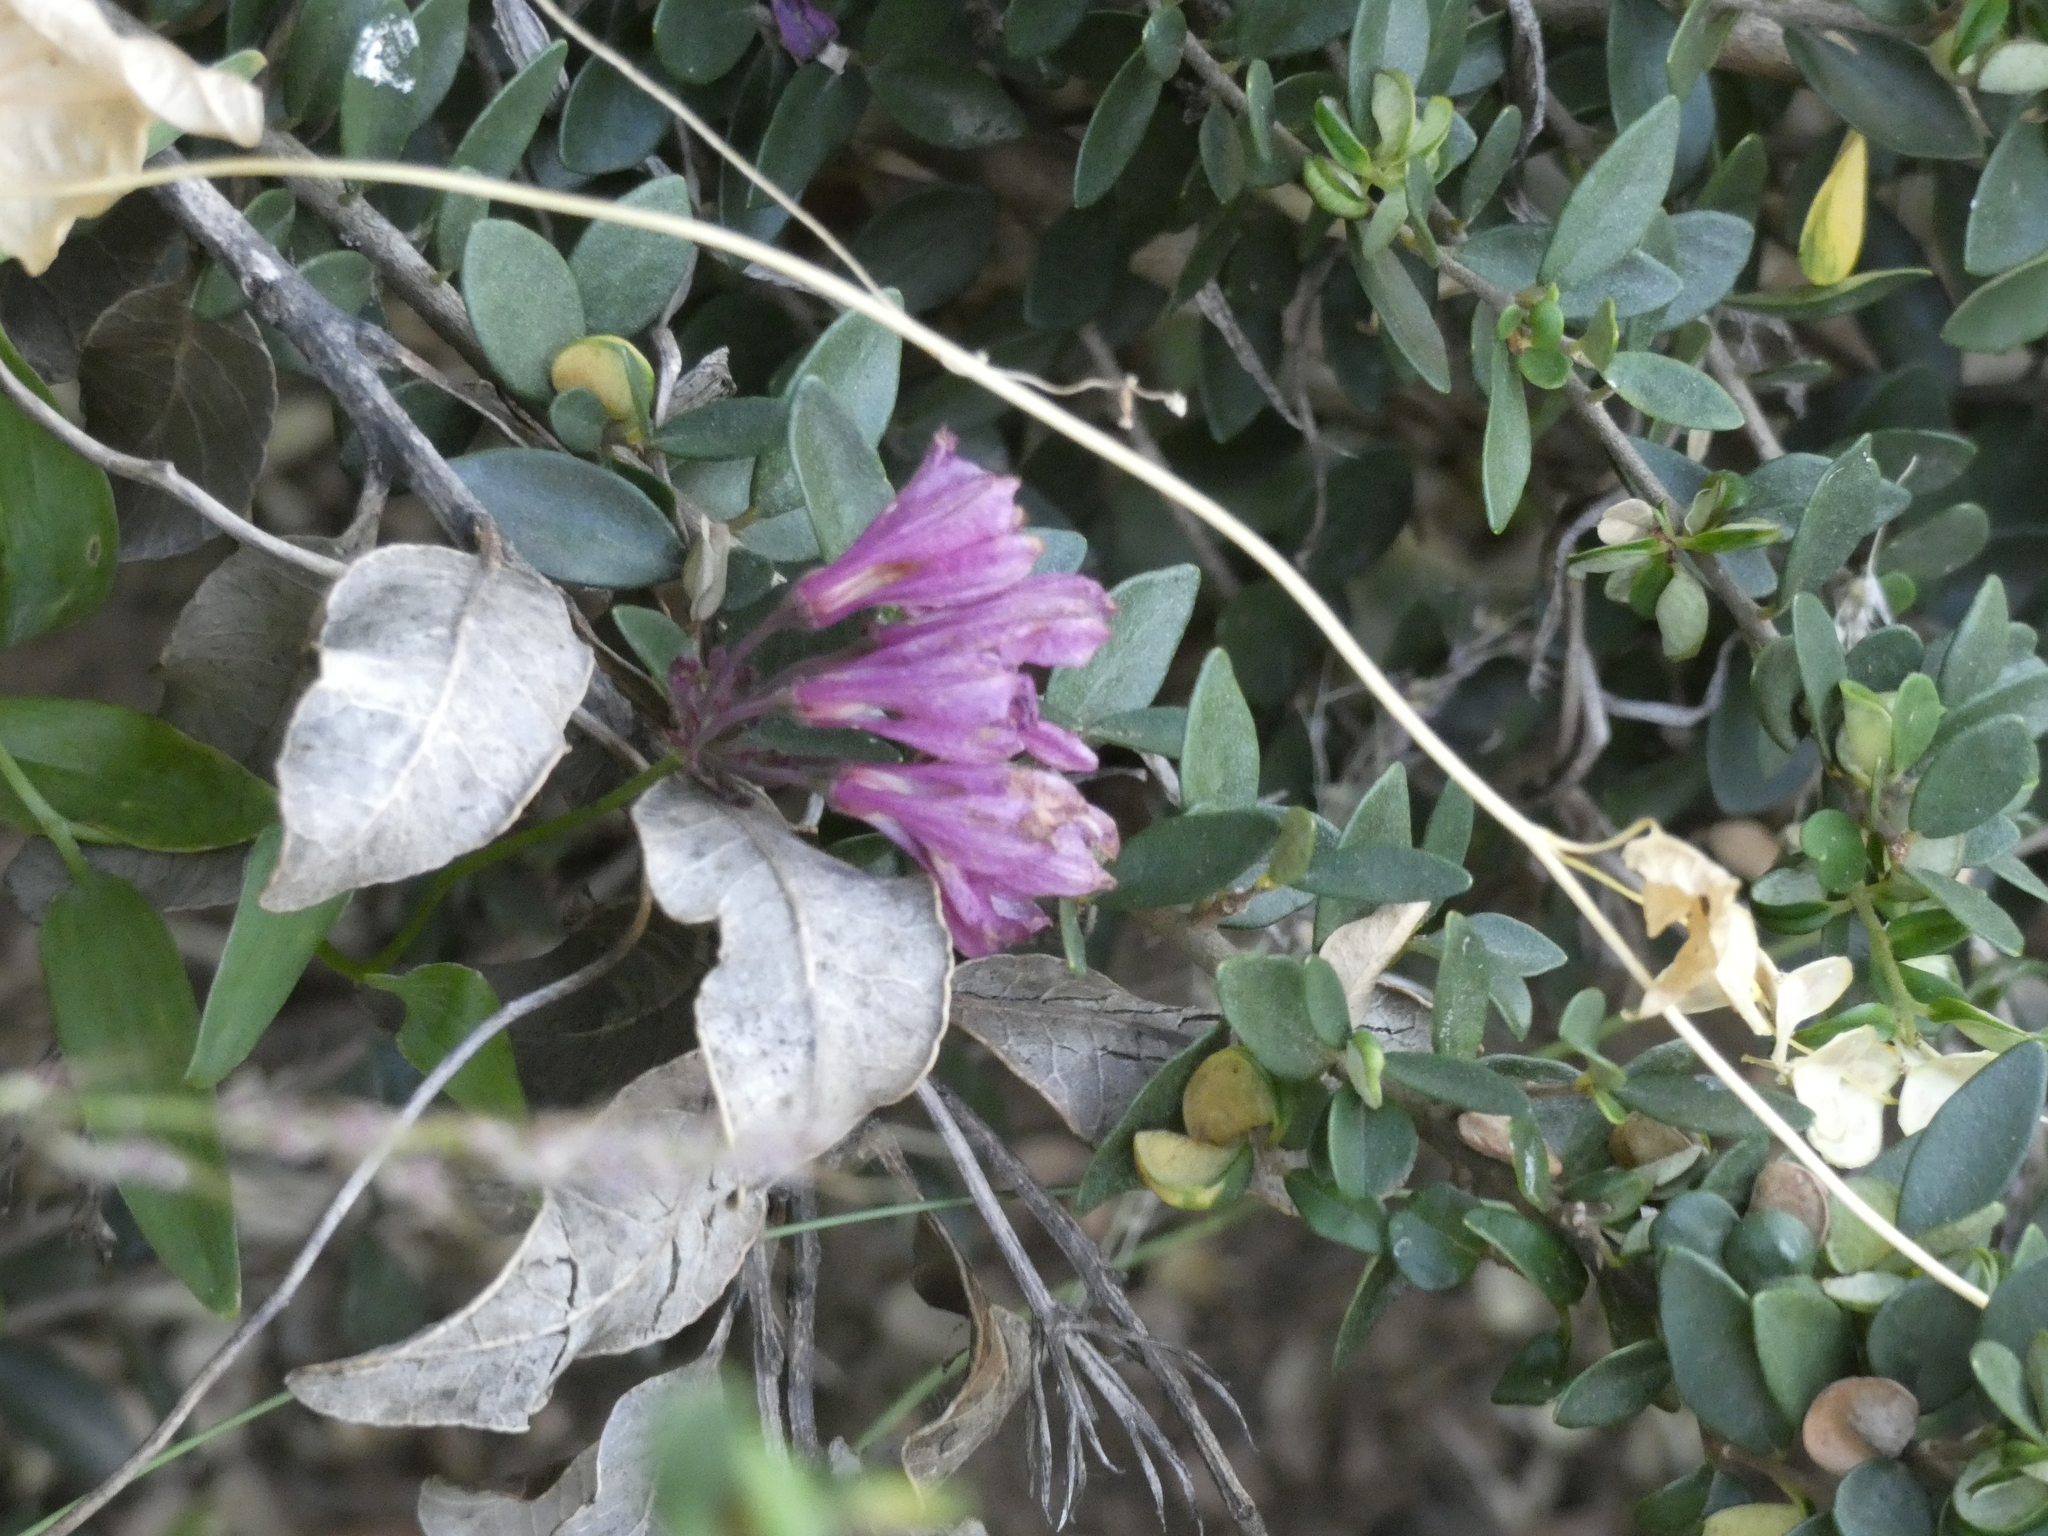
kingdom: Plantae
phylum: Tracheophyta
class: Liliopsida
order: Liliales
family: Alstroemeriaceae
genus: Bomarea
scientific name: Bomarea salsilla
